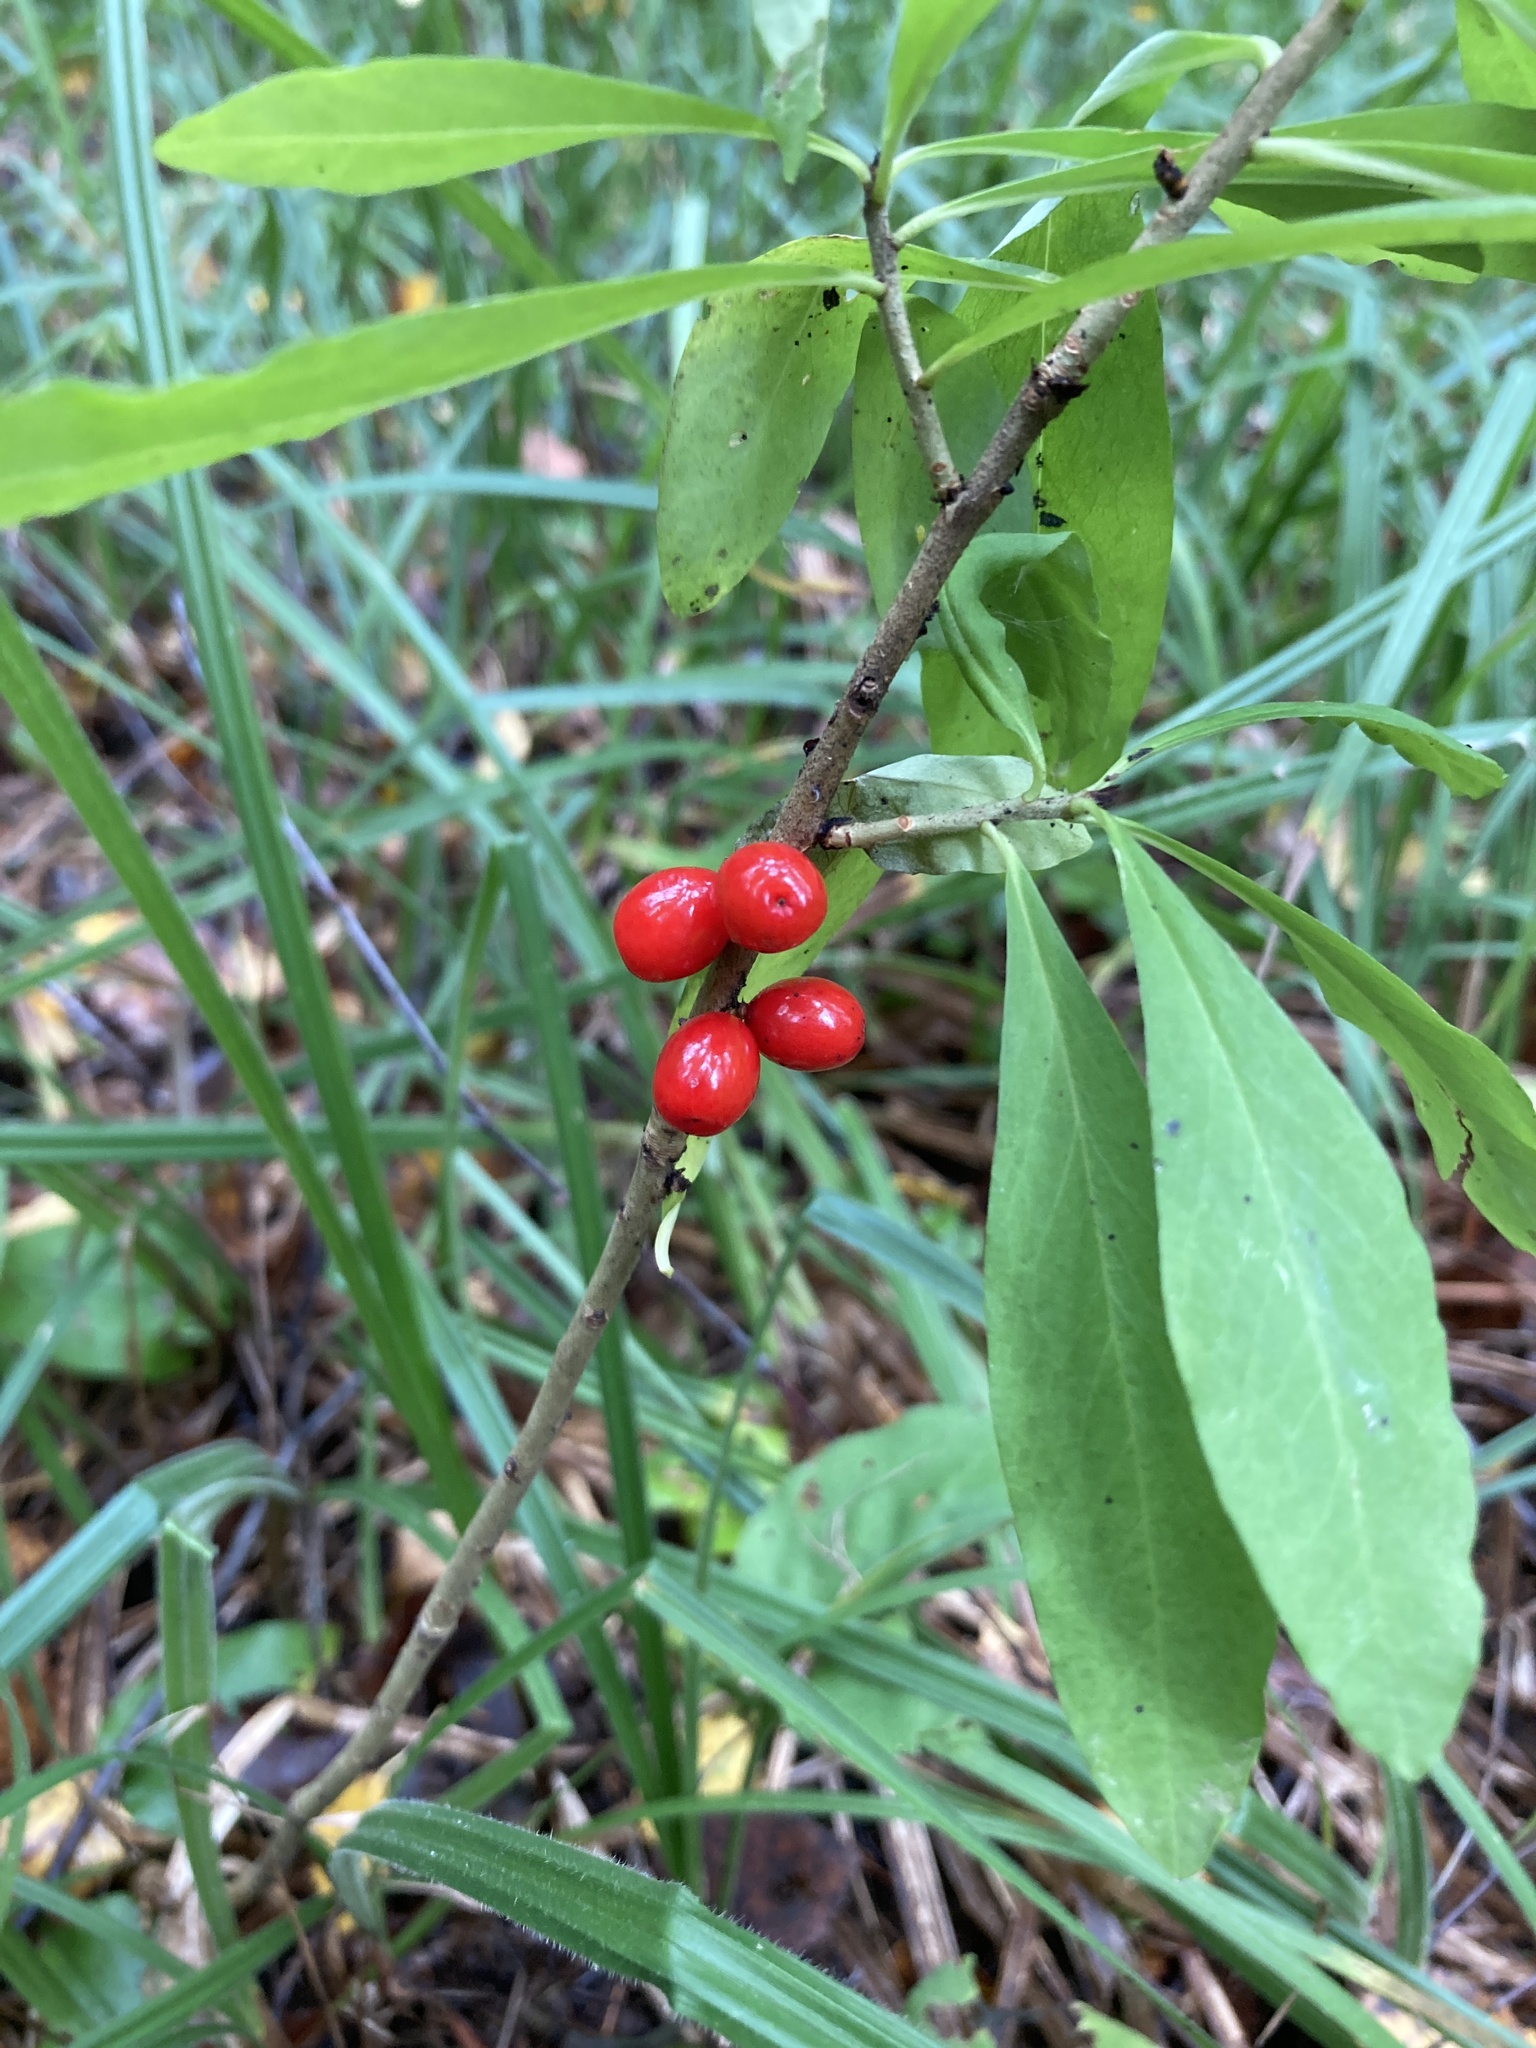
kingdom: Plantae
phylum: Tracheophyta
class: Magnoliopsida
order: Malvales
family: Thymelaeaceae
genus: Daphne
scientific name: Daphne mezereum
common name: Mezereon
